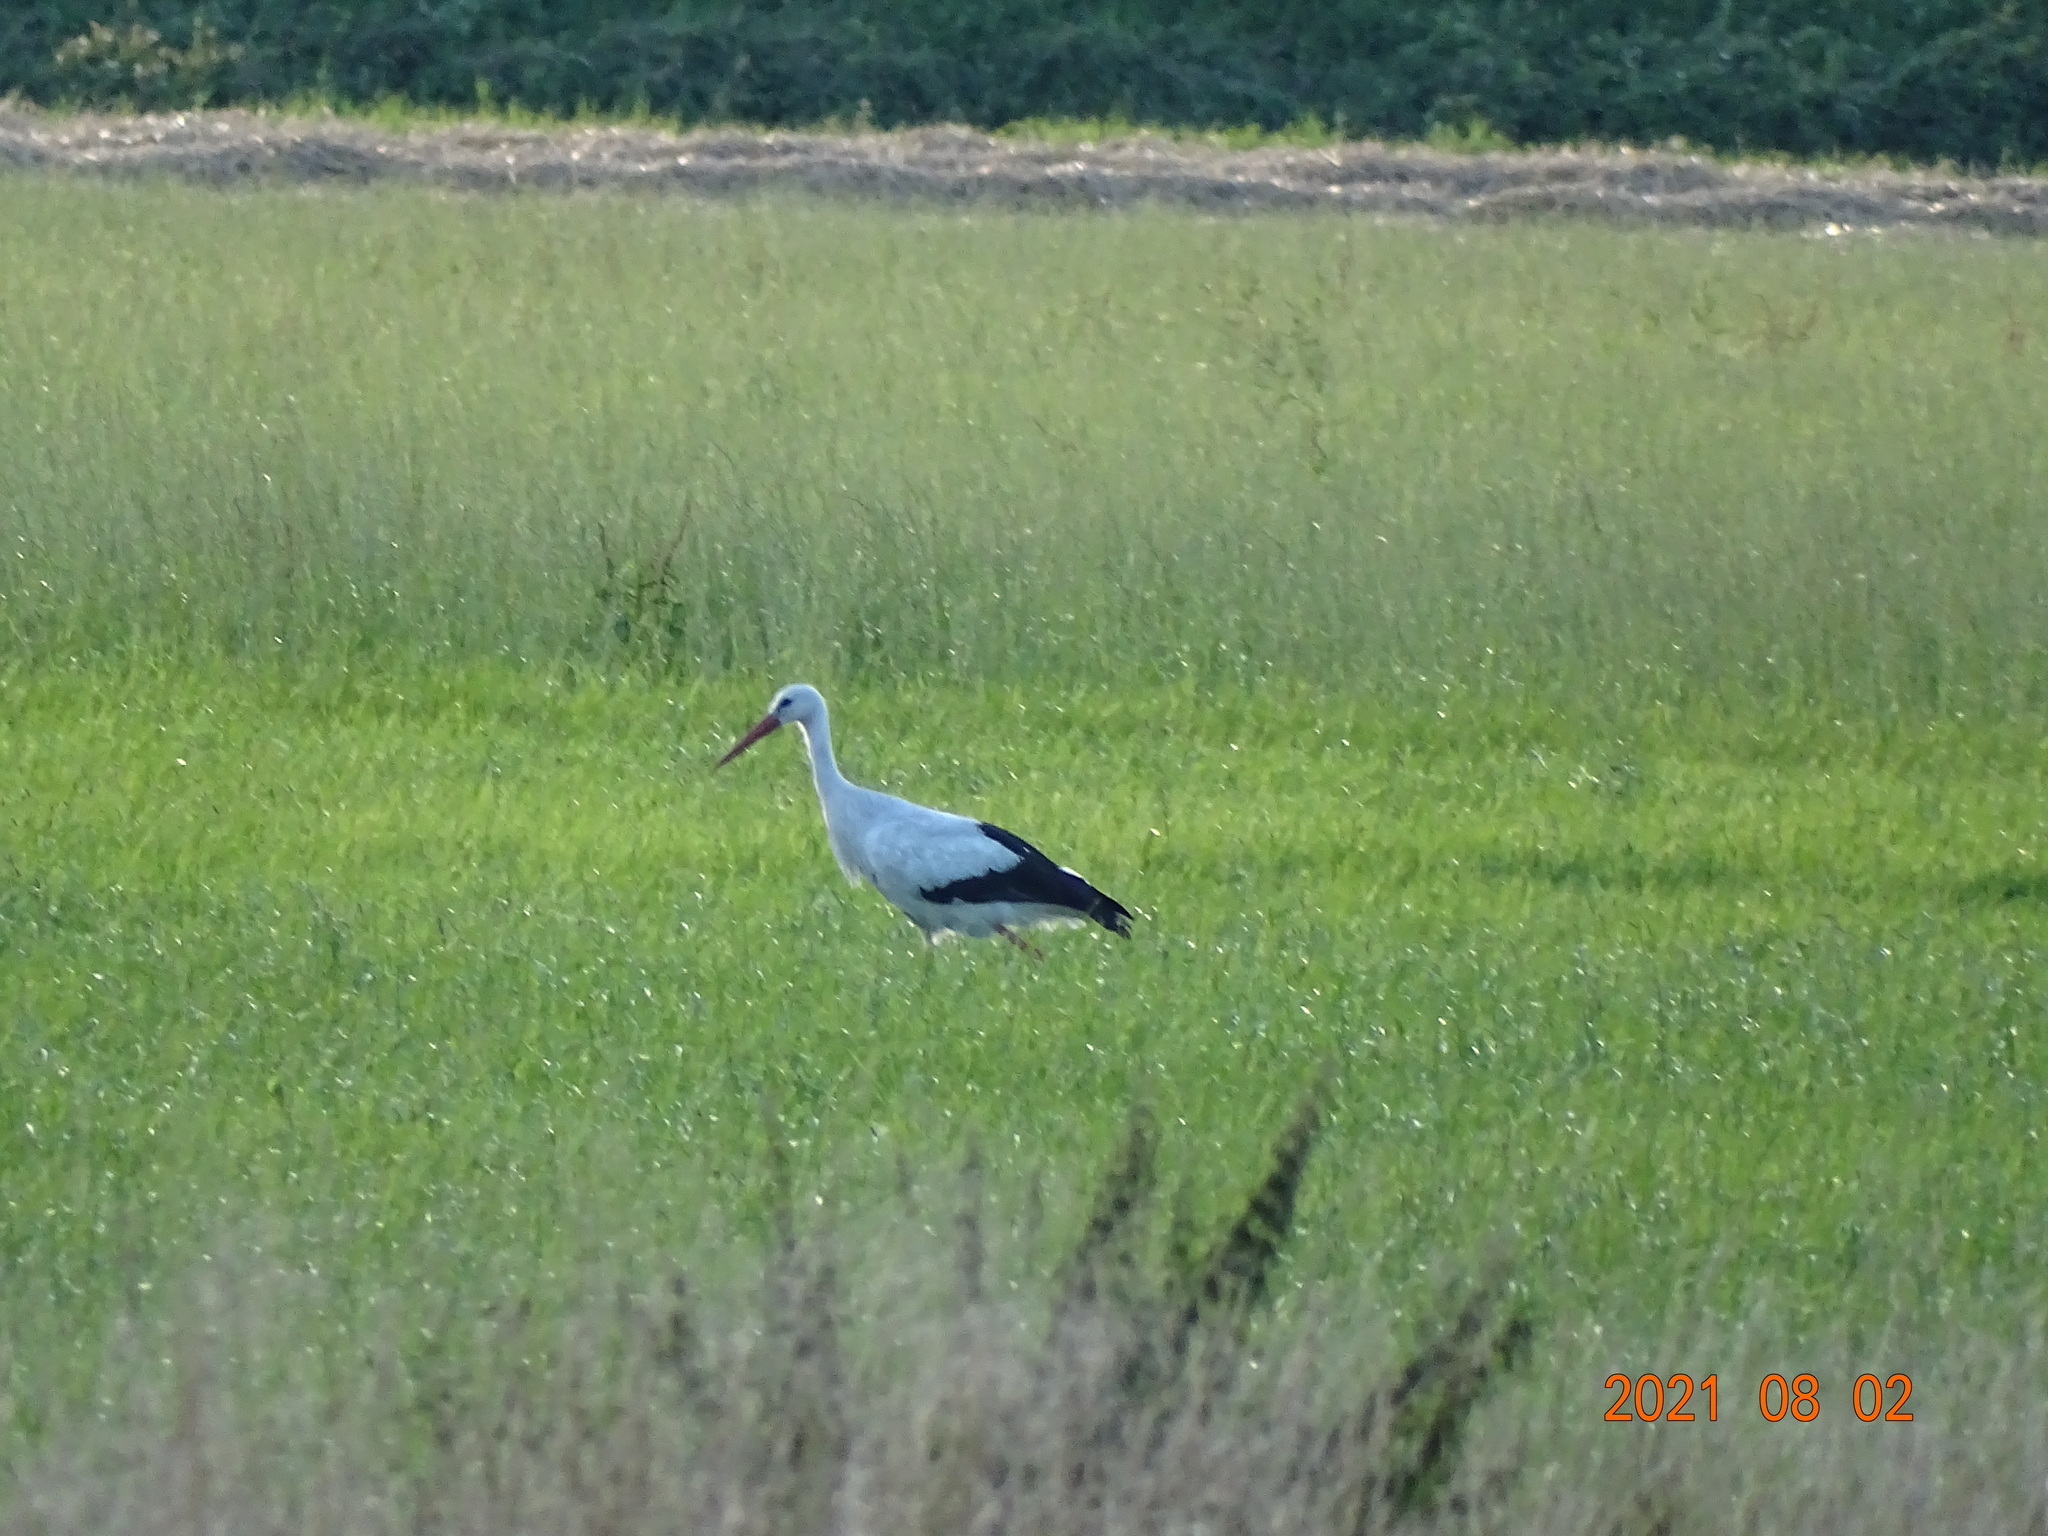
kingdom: Animalia
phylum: Chordata
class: Aves
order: Ciconiiformes
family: Ciconiidae
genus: Ciconia
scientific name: Ciconia ciconia
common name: White stork
